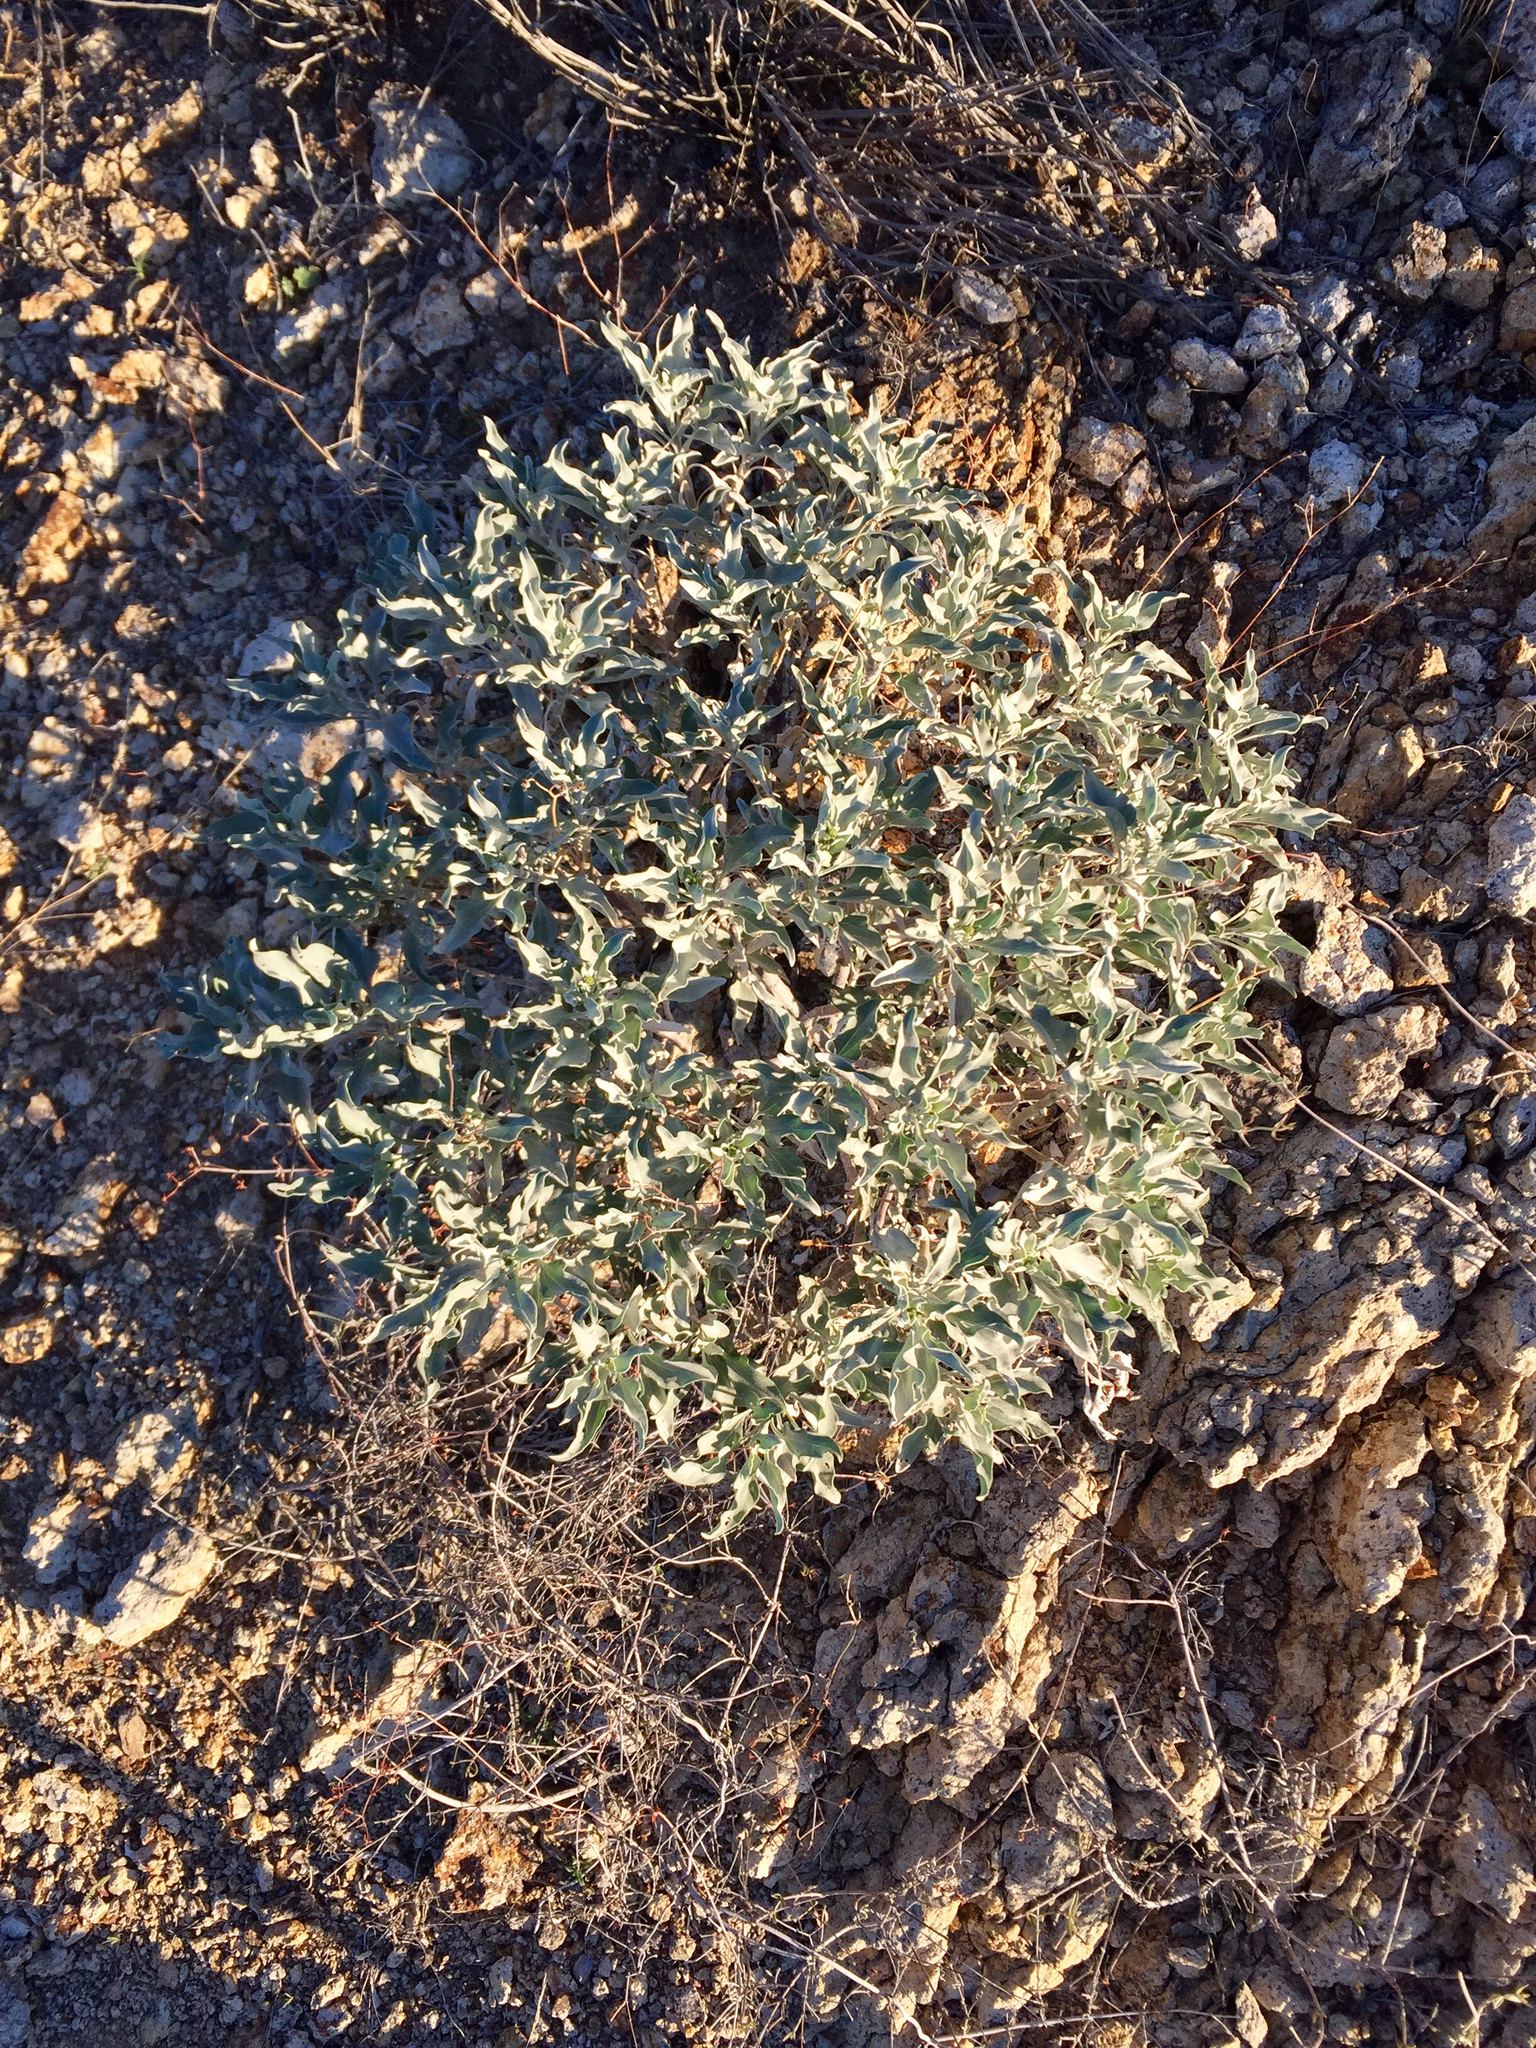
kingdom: Plantae
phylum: Tracheophyta
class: Magnoliopsida
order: Asterales
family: Asteraceae
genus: Encelia
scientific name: Encelia farinosa
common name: Brittlebush
